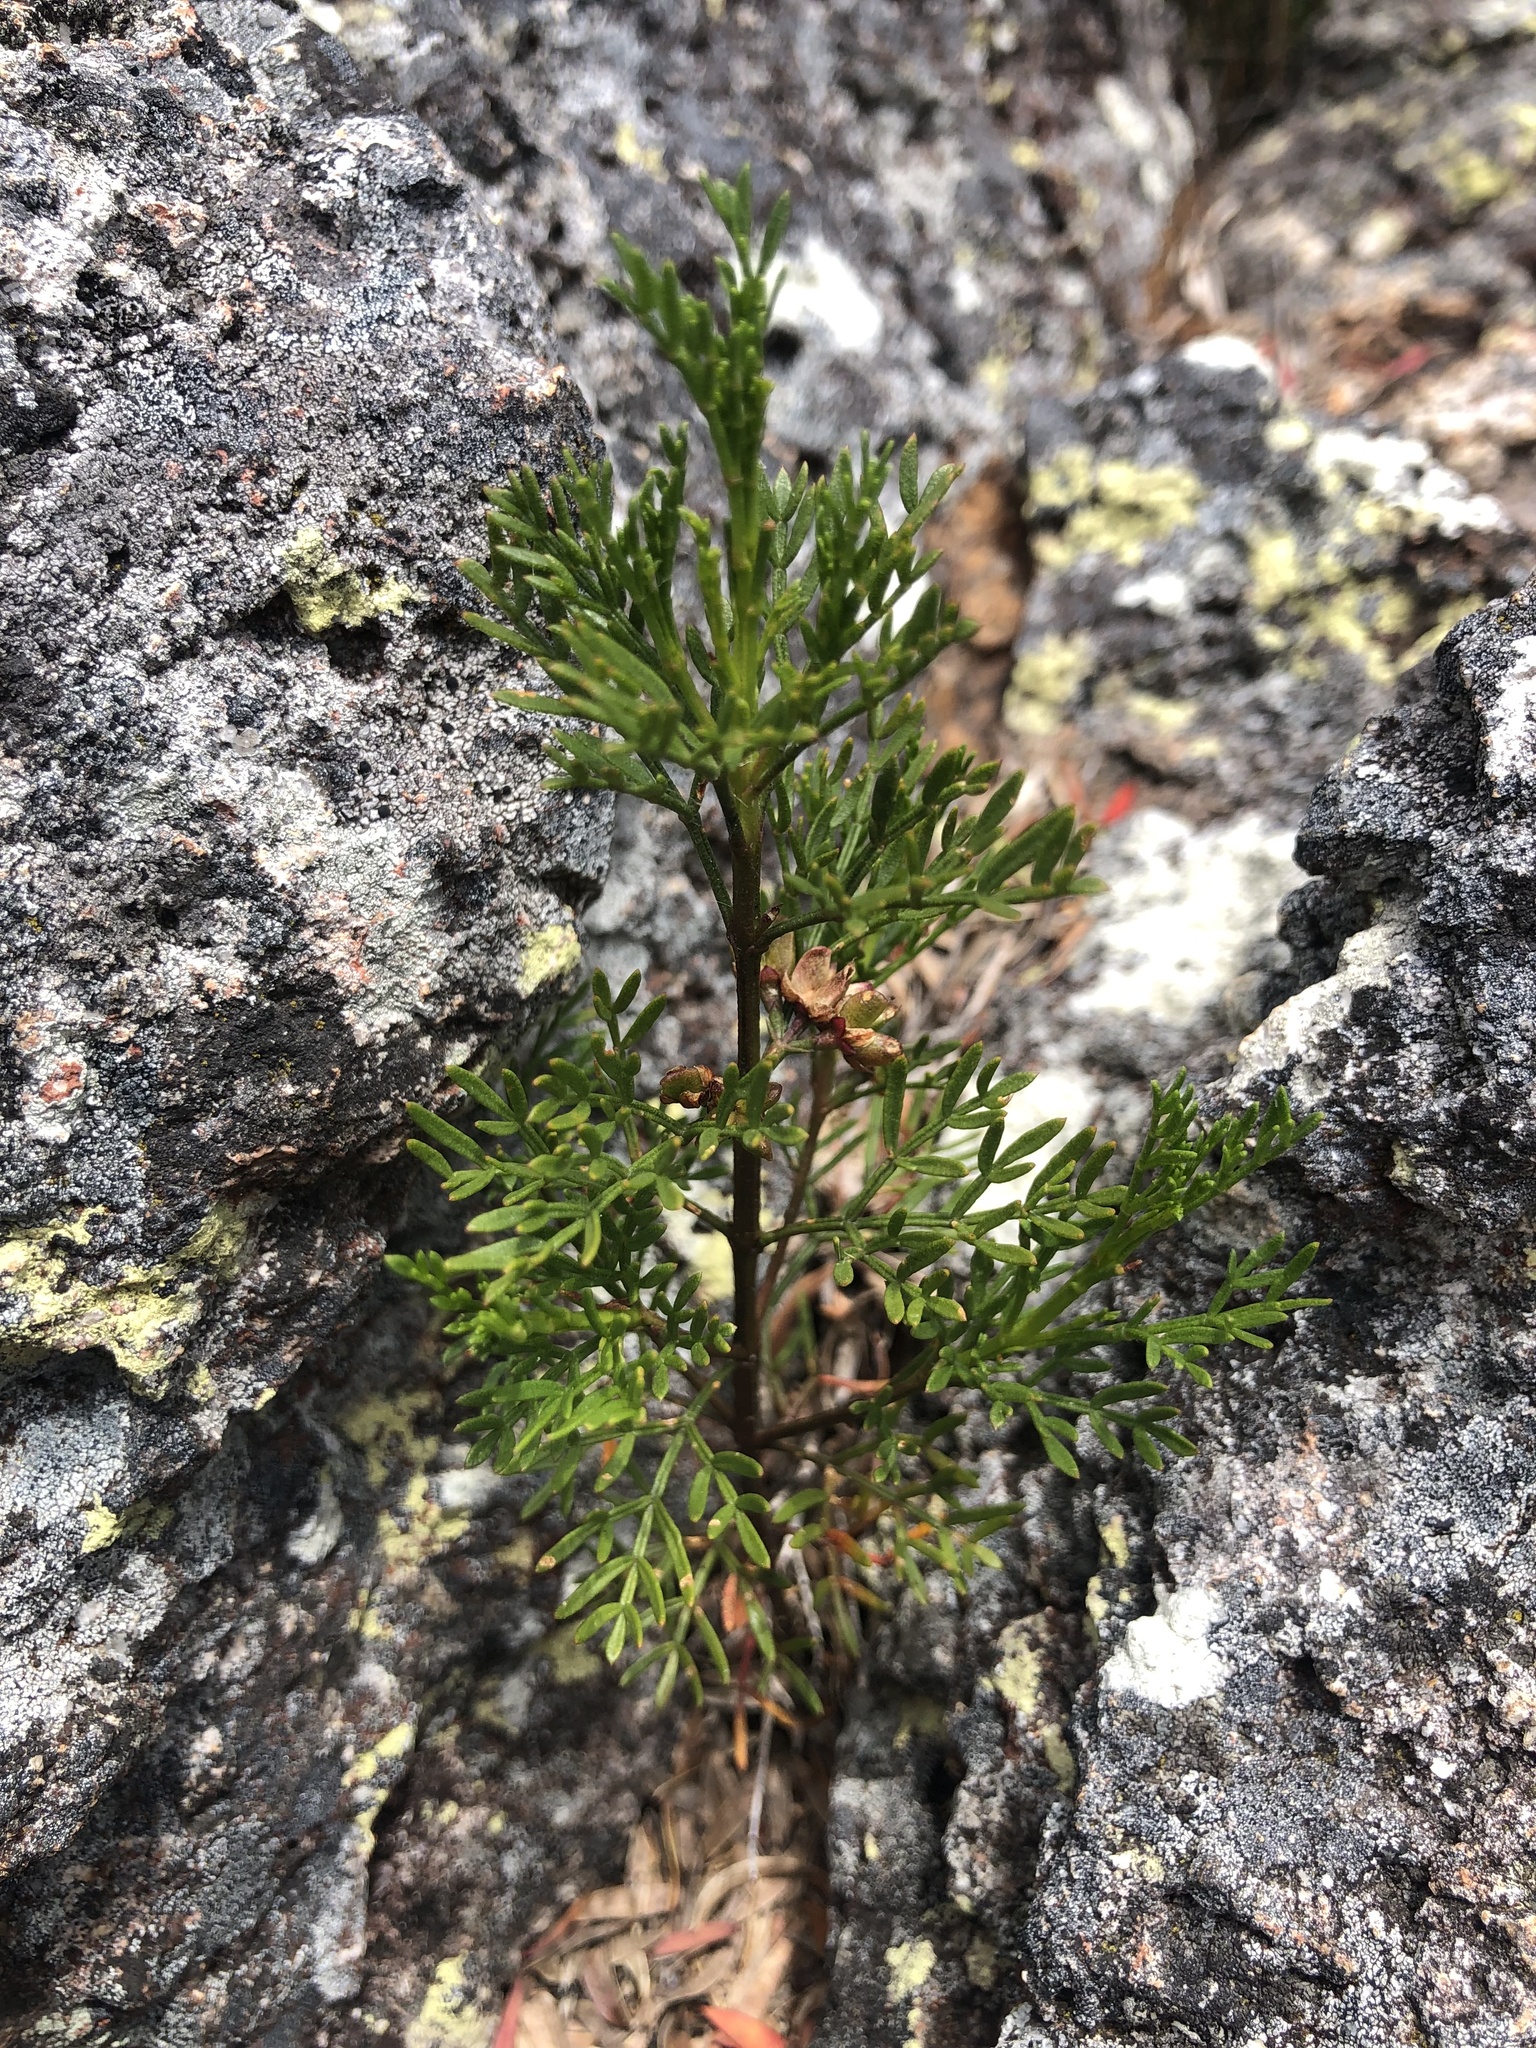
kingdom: Plantae
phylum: Tracheophyta
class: Magnoliopsida
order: Sapindales
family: Rutaceae
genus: Cyanothamnus
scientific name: Cyanothamnus quadrangulus
